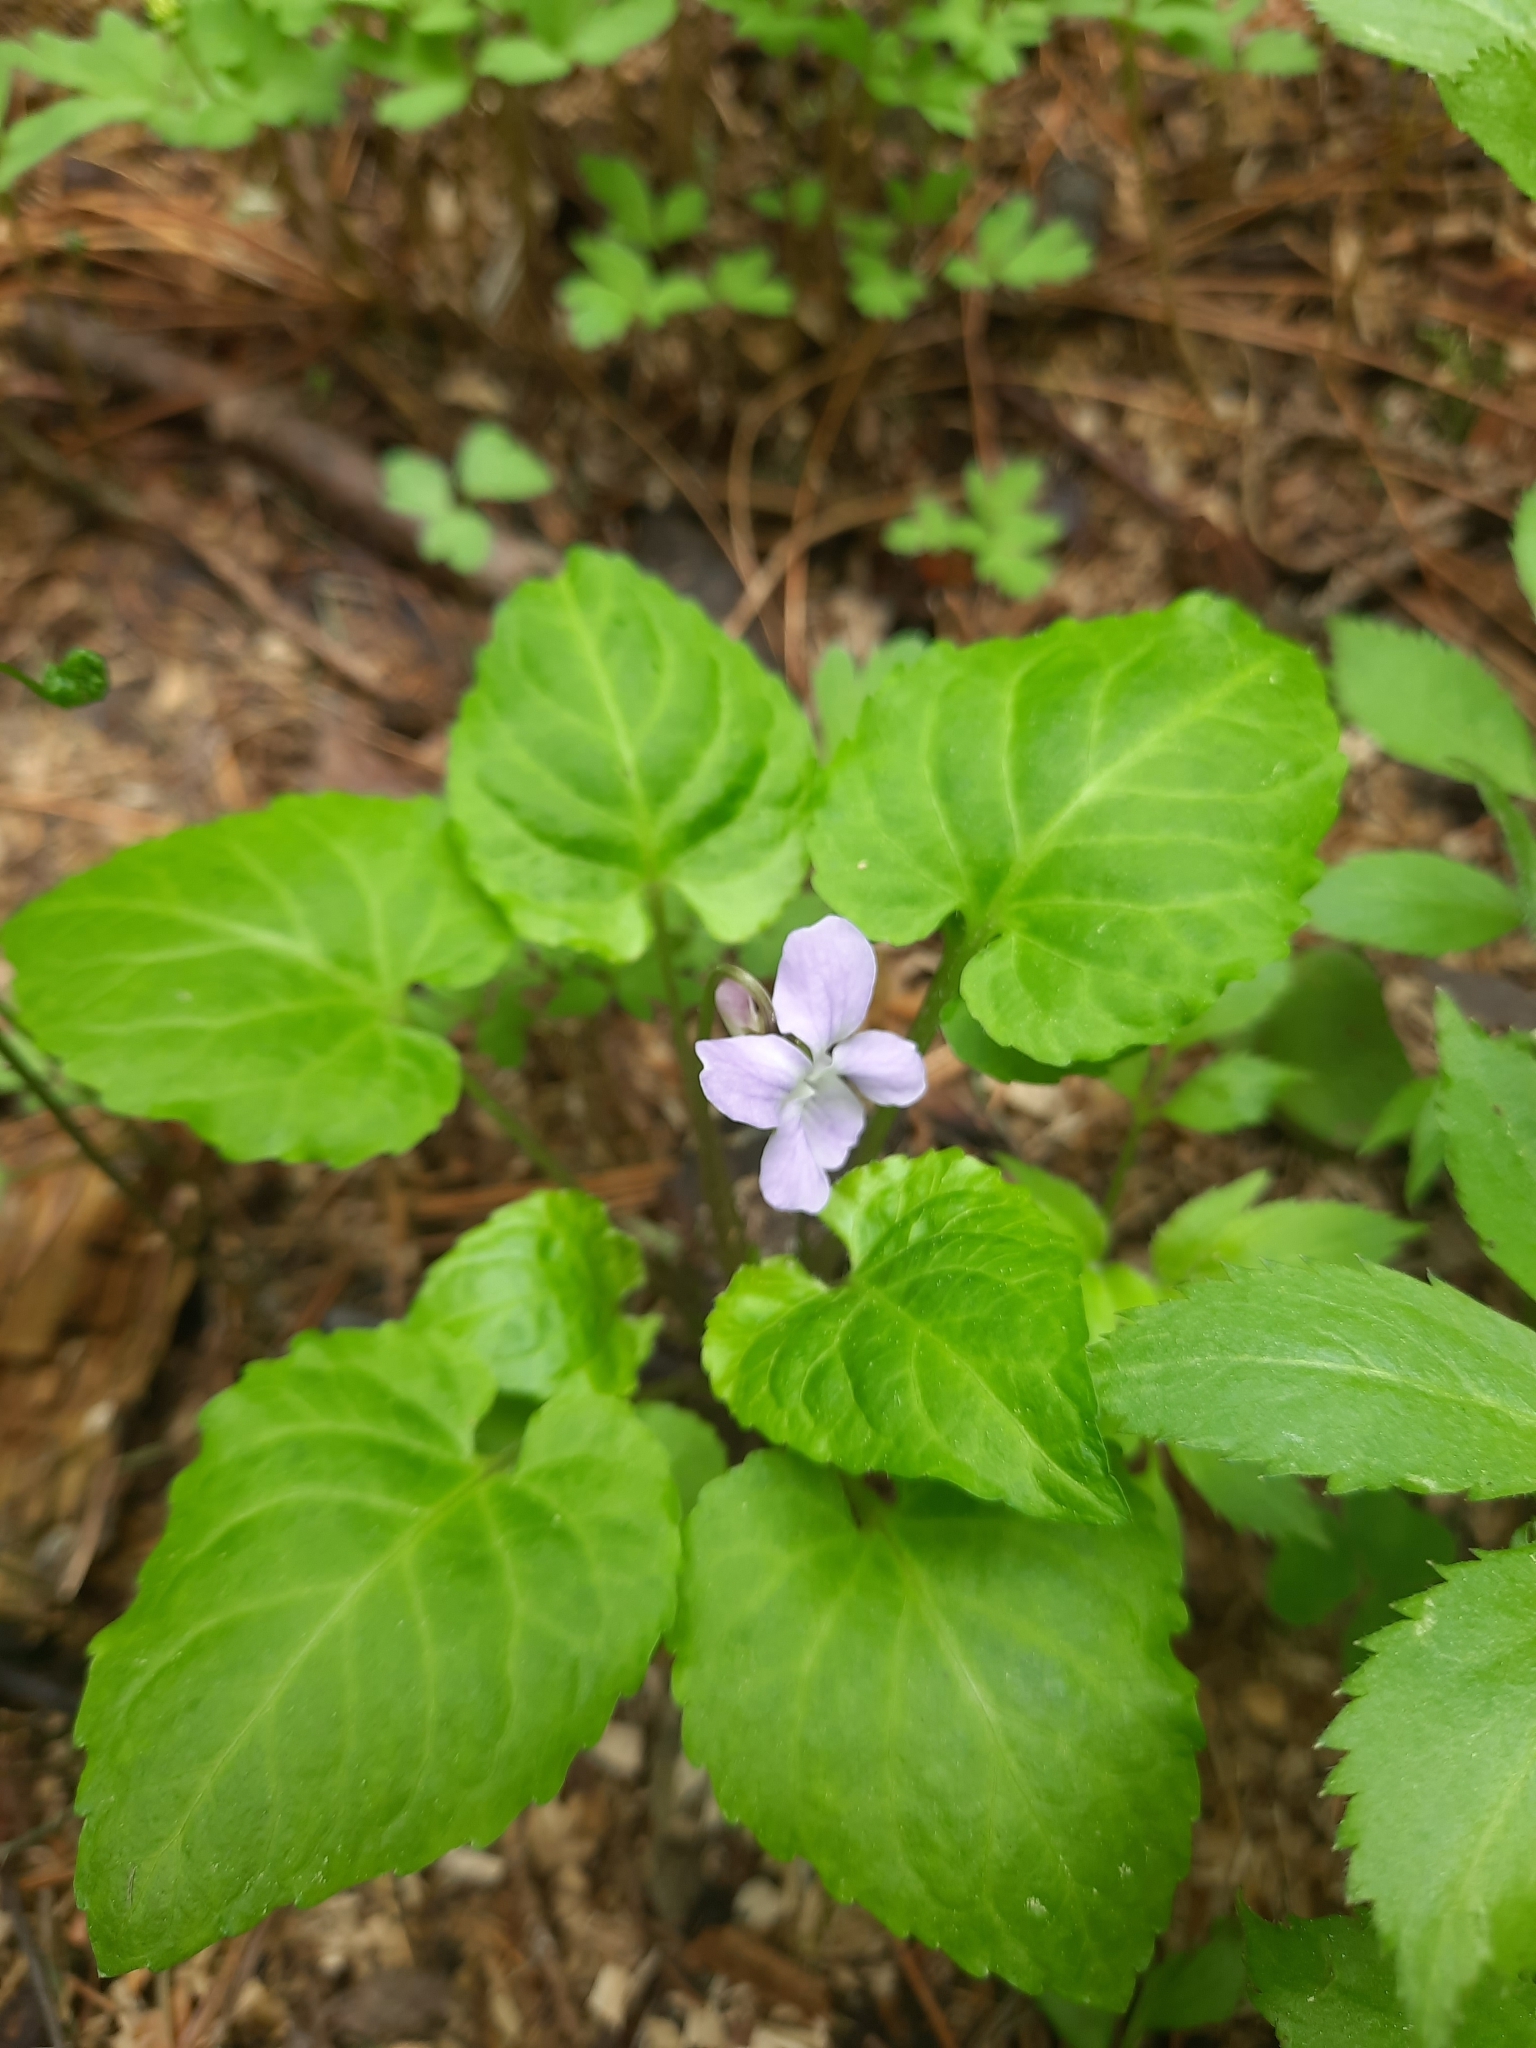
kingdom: Plantae
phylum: Tracheophyta
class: Magnoliopsida
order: Malpighiales
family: Violaceae
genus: Viola
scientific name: Viola selkirkii
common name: Selkirk's violet
